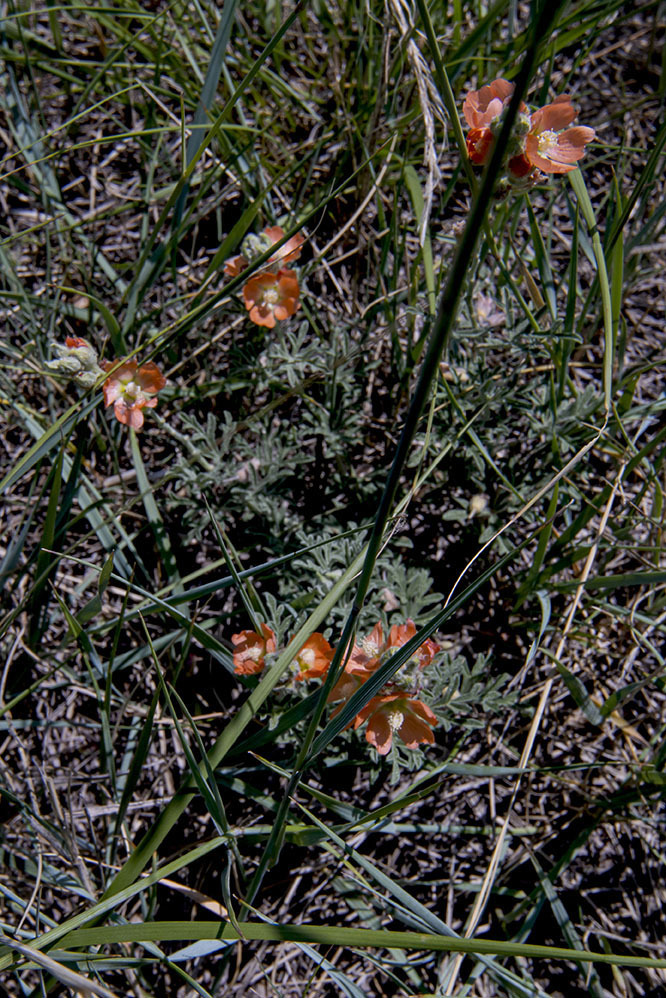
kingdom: Plantae
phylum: Tracheophyta
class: Magnoliopsida
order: Malvales
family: Malvaceae
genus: Sphaeralcea
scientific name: Sphaeralcea coccinea
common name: Moss-rose
